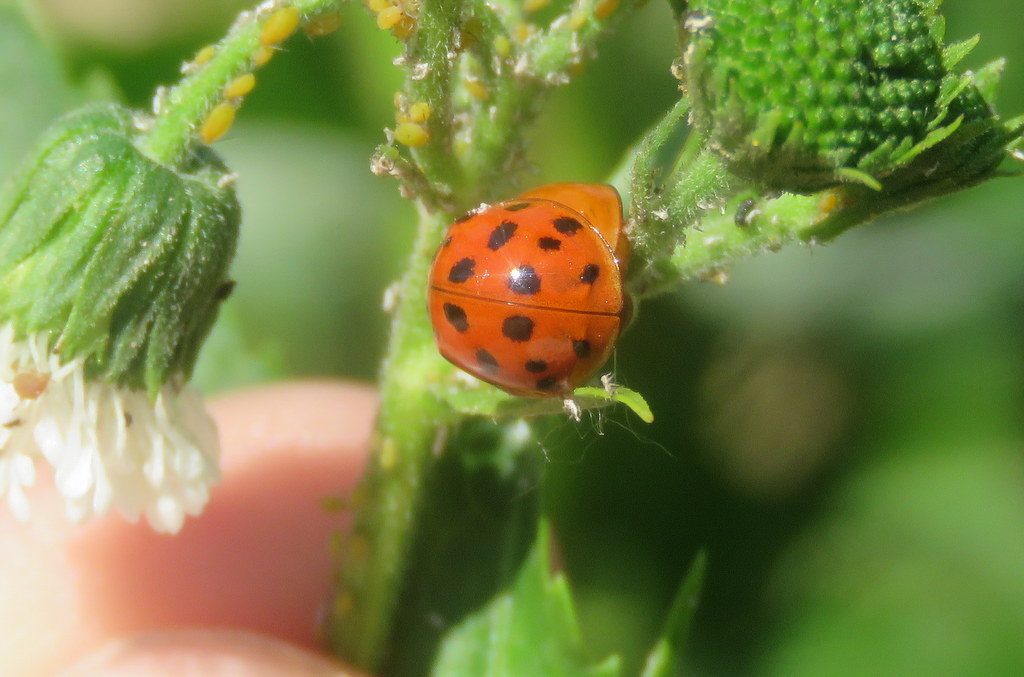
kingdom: Animalia
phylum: Arthropoda
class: Insecta
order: Coleoptera
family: Coccinellidae
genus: Harmonia
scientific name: Harmonia axyridis
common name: Harlequin ladybird
